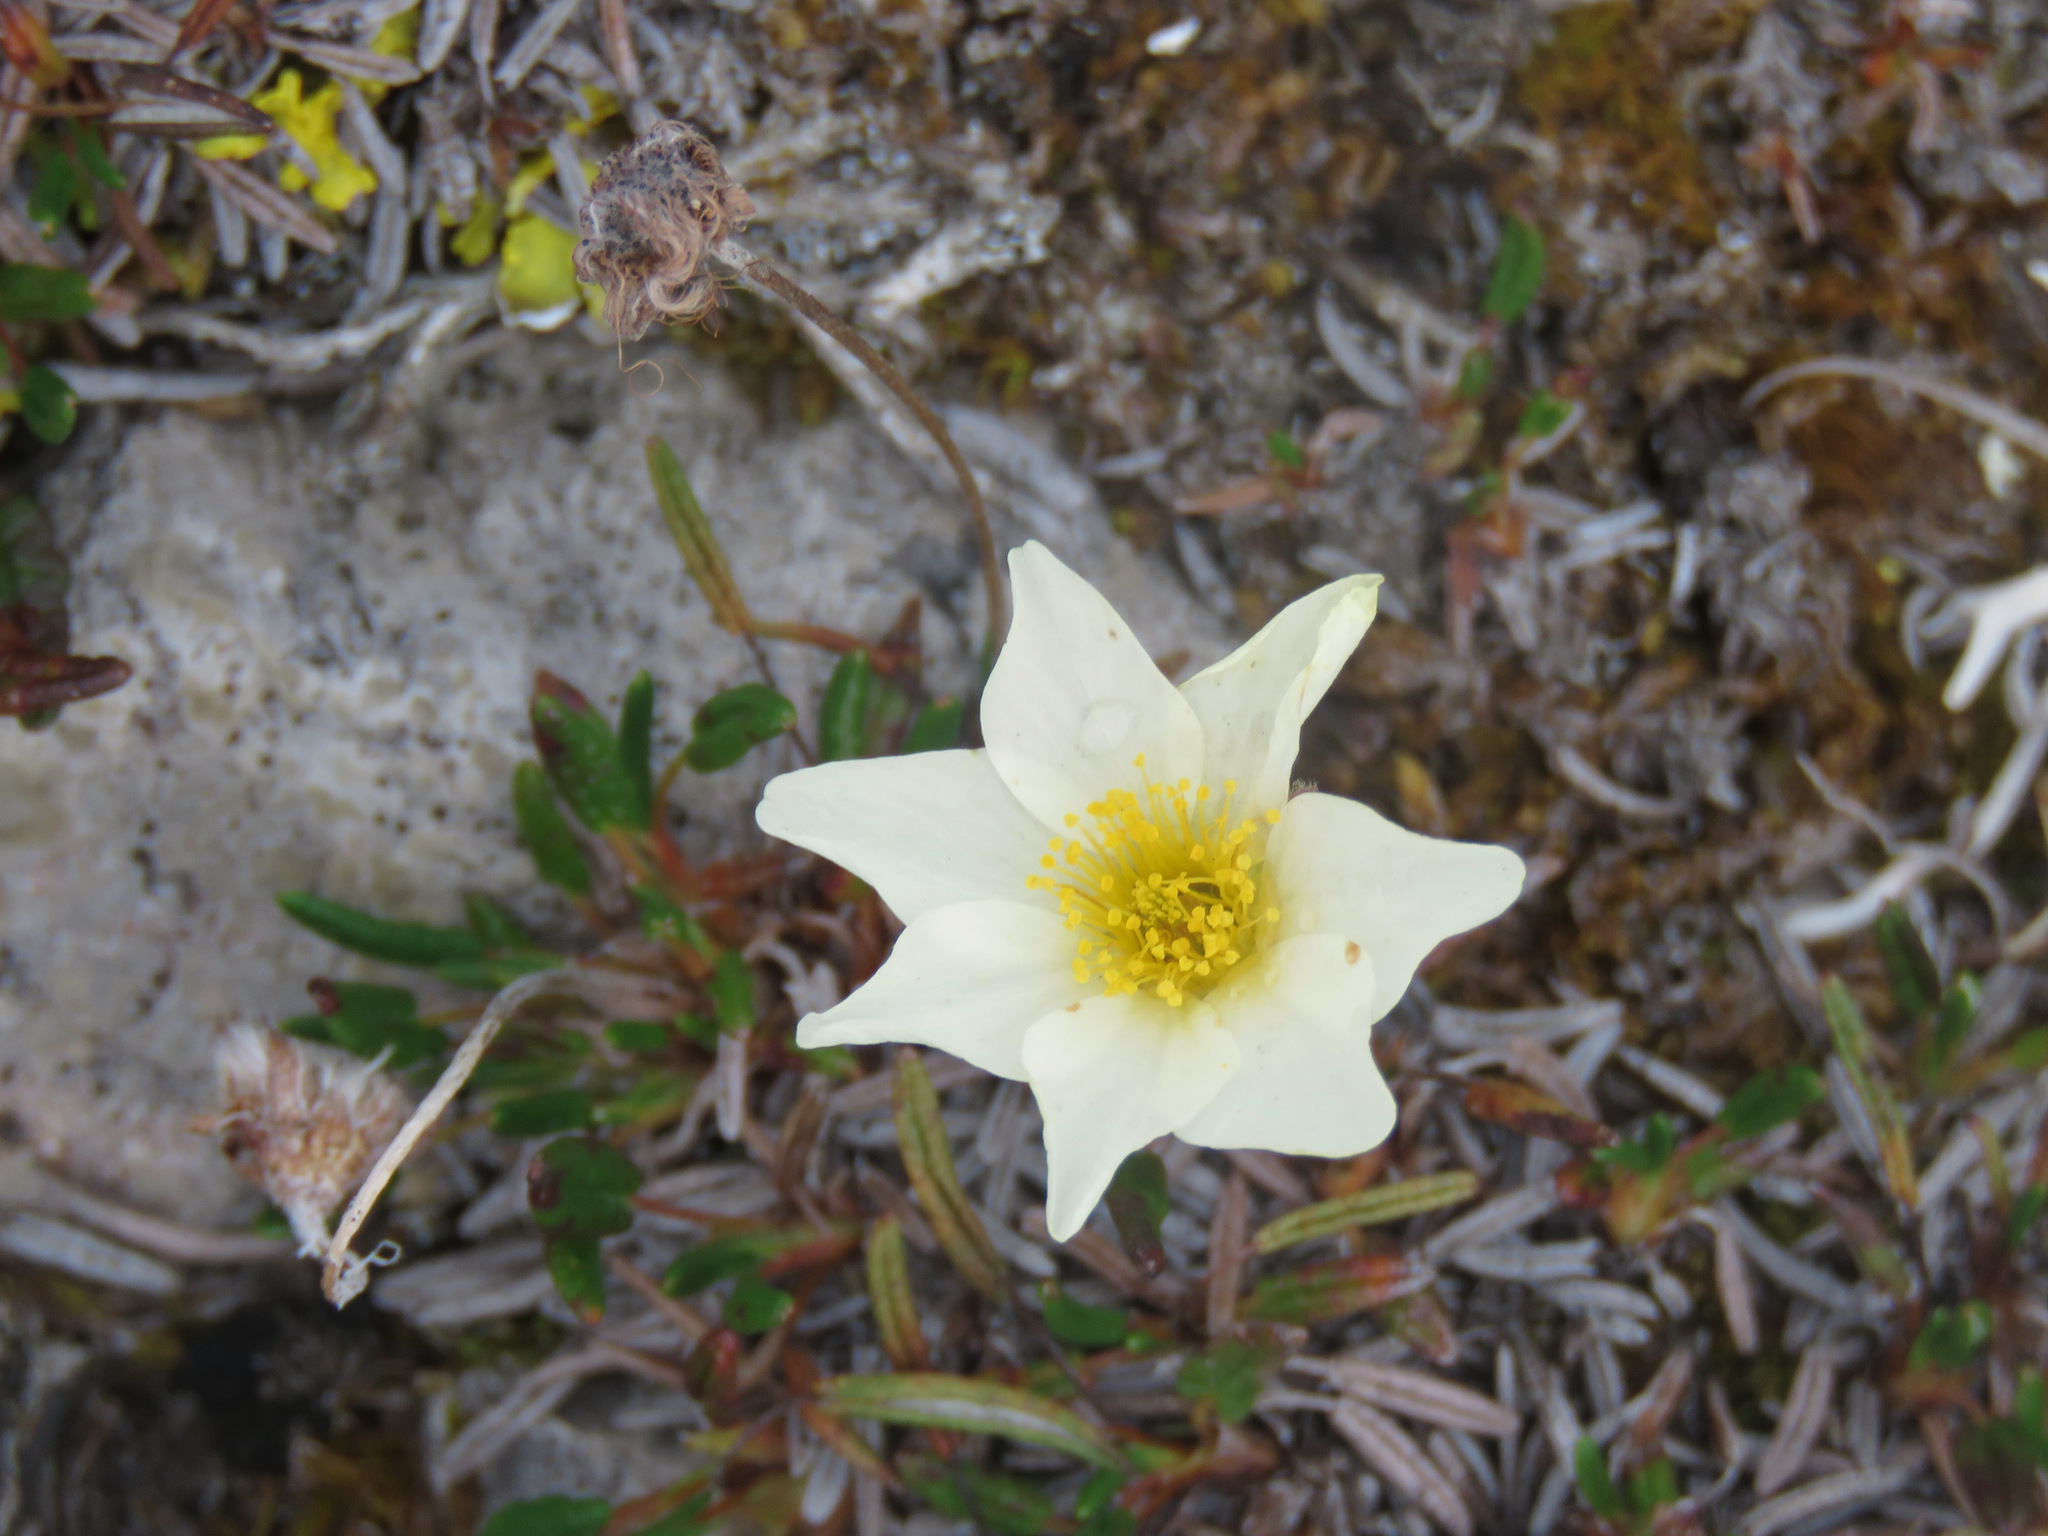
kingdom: Plantae
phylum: Tracheophyta
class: Magnoliopsida
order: Rosales
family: Rosaceae
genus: Dryas
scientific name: Dryas integrifolia
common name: Entire-leaved mountain avens
